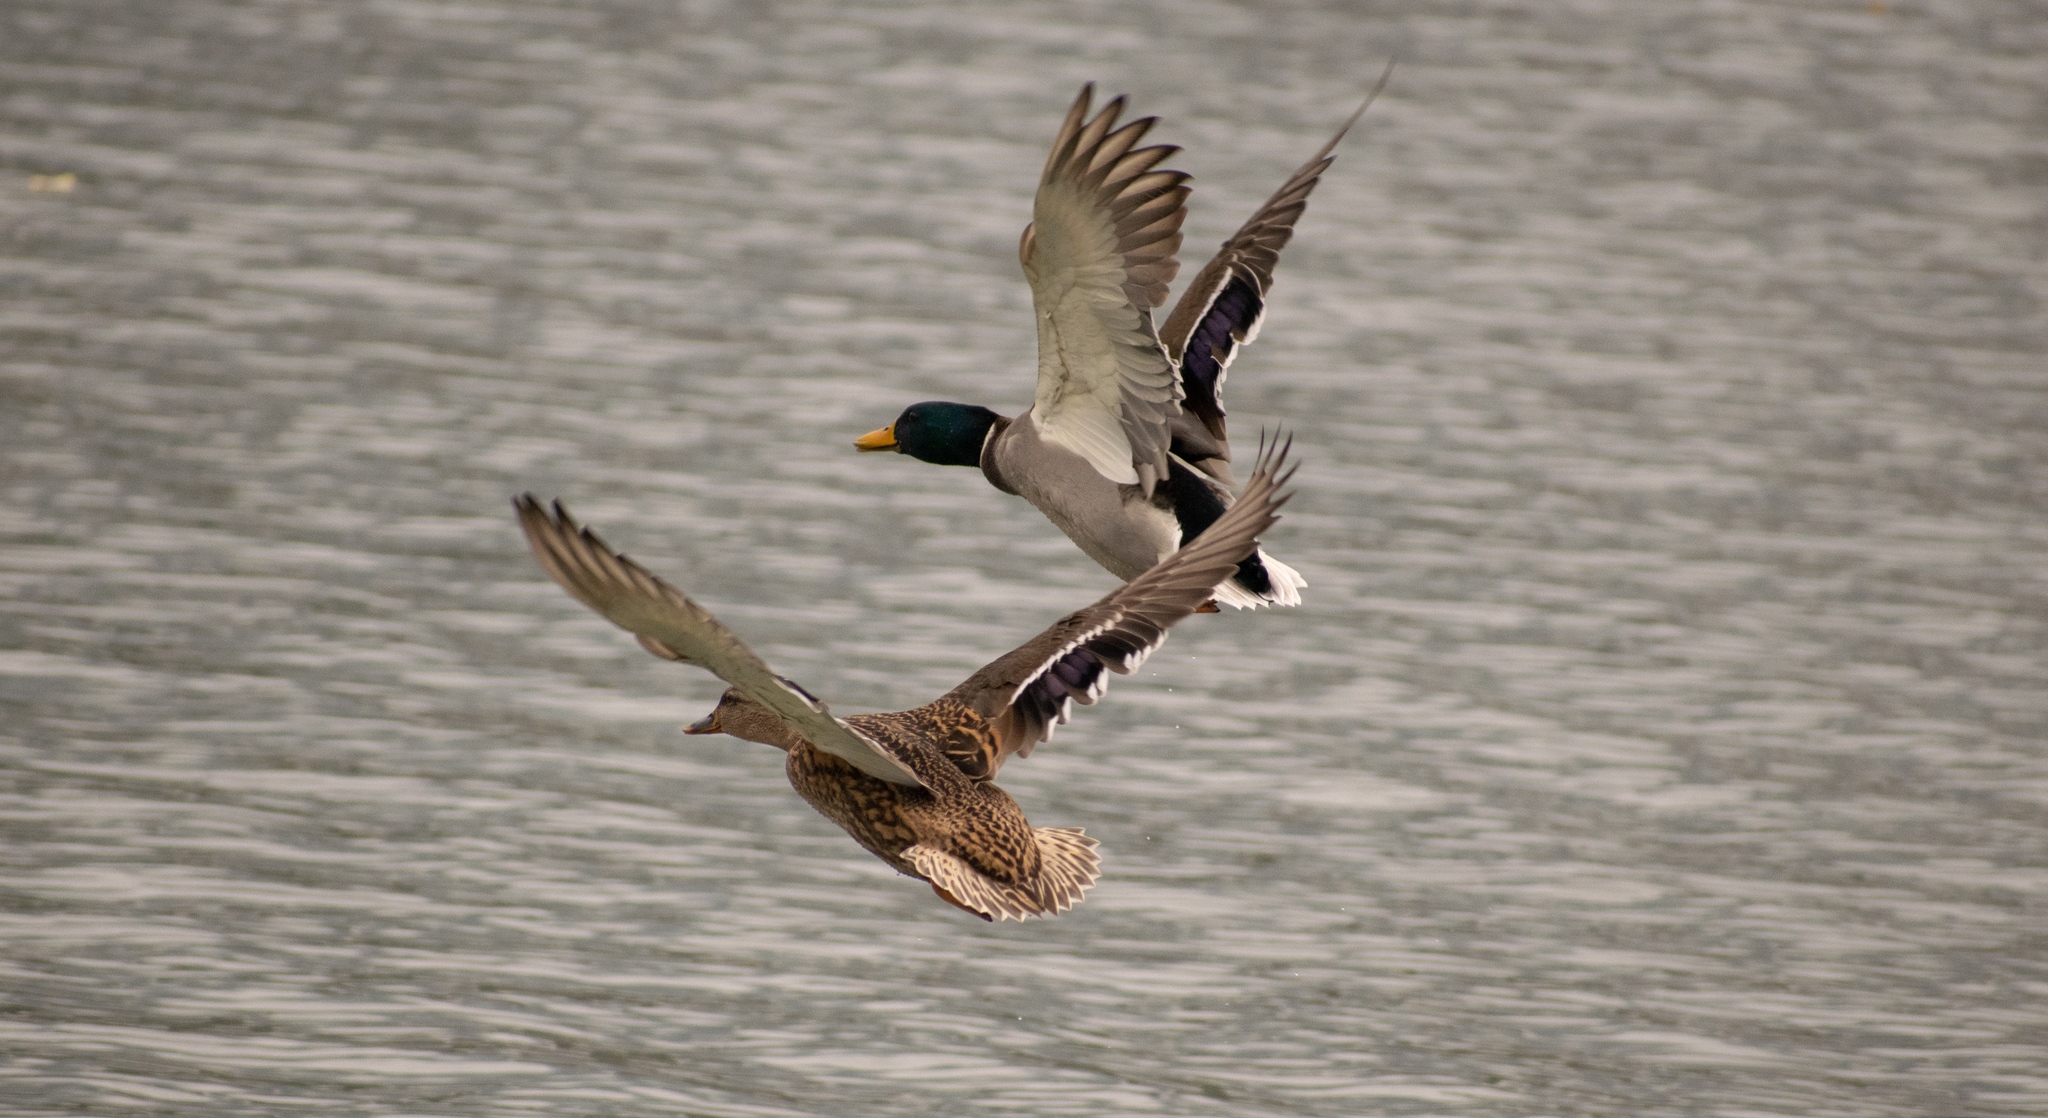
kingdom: Animalia
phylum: Chordata
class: Aves
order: Anseriformes
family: Anatidae
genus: Anas
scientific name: Anas platyrhynchos
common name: Mallard
